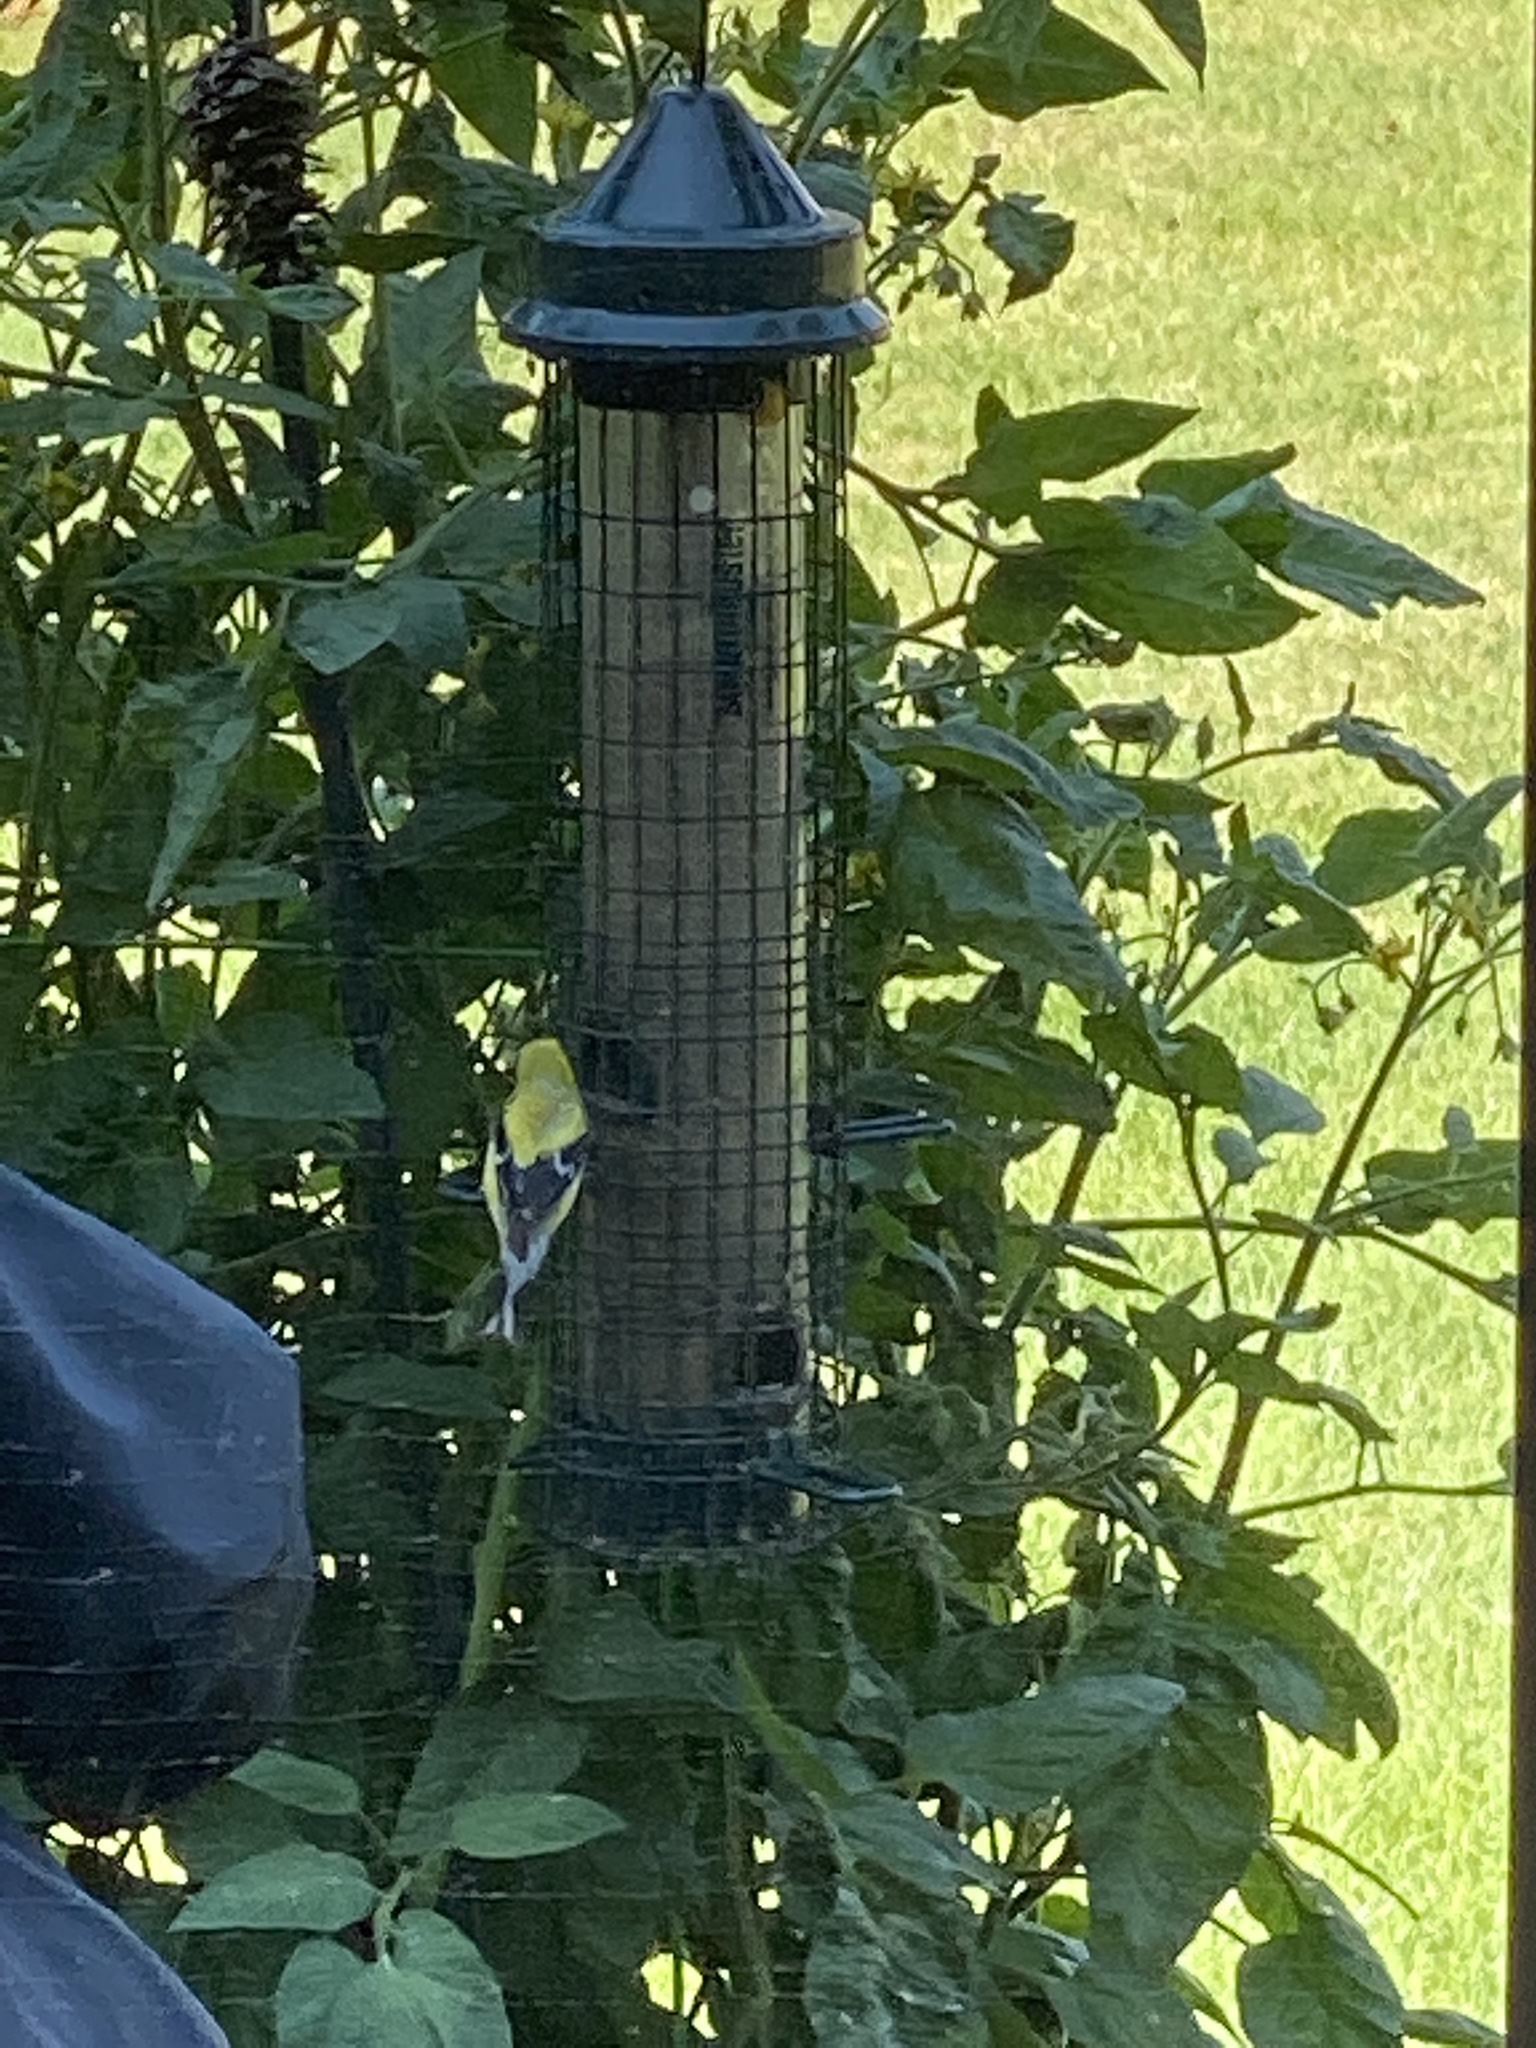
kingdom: Animalia
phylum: Chordata
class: Aves
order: Passeriformes
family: Fringillidae
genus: Spinus
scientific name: Spinus tristis
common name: American goldfinch
